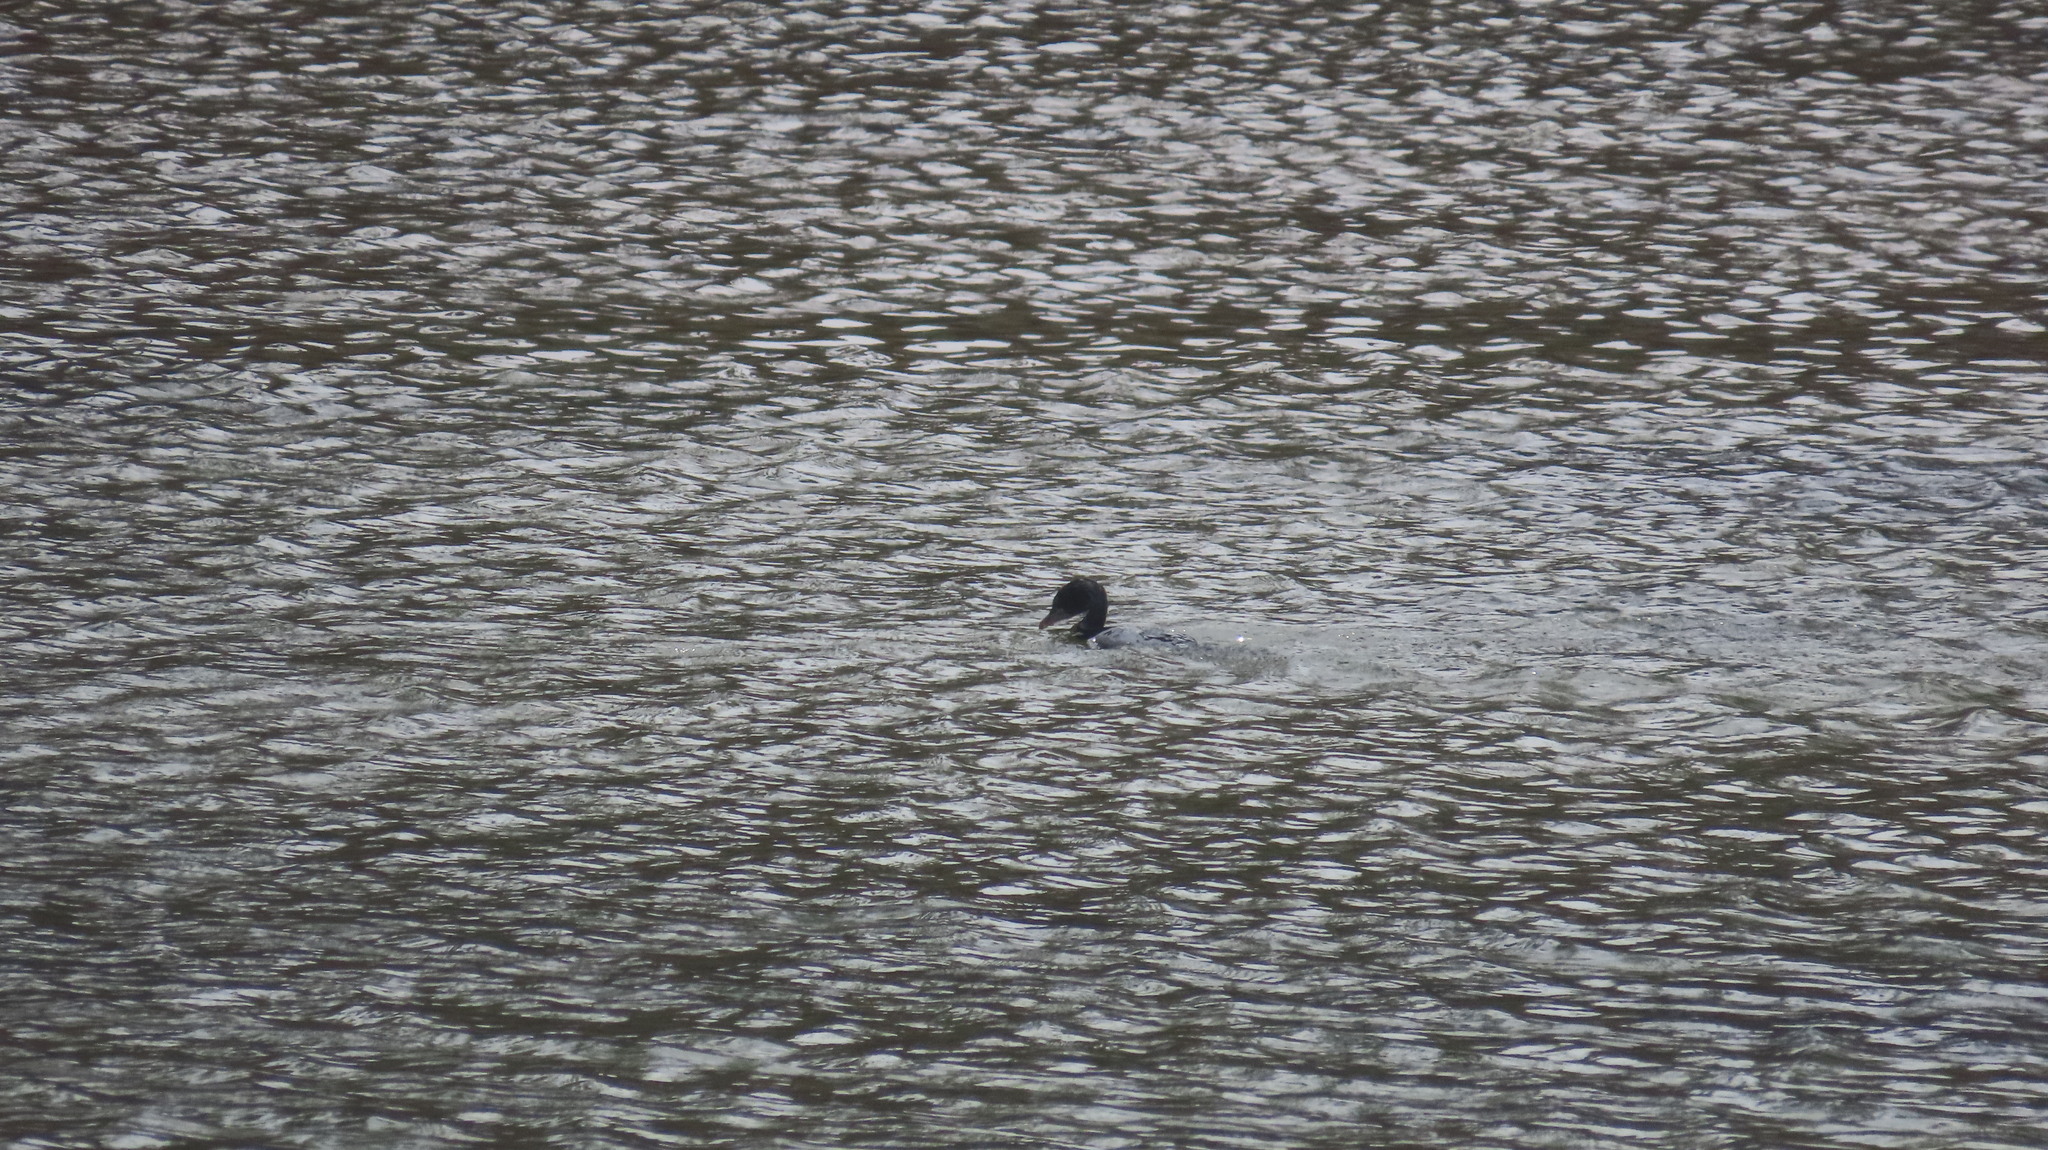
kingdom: Animalia
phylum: Chordata
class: Aves
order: Suliformes
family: Phalacrocoracidae
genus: Microcarbo
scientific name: Microcarbo niger
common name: Little cormorant
